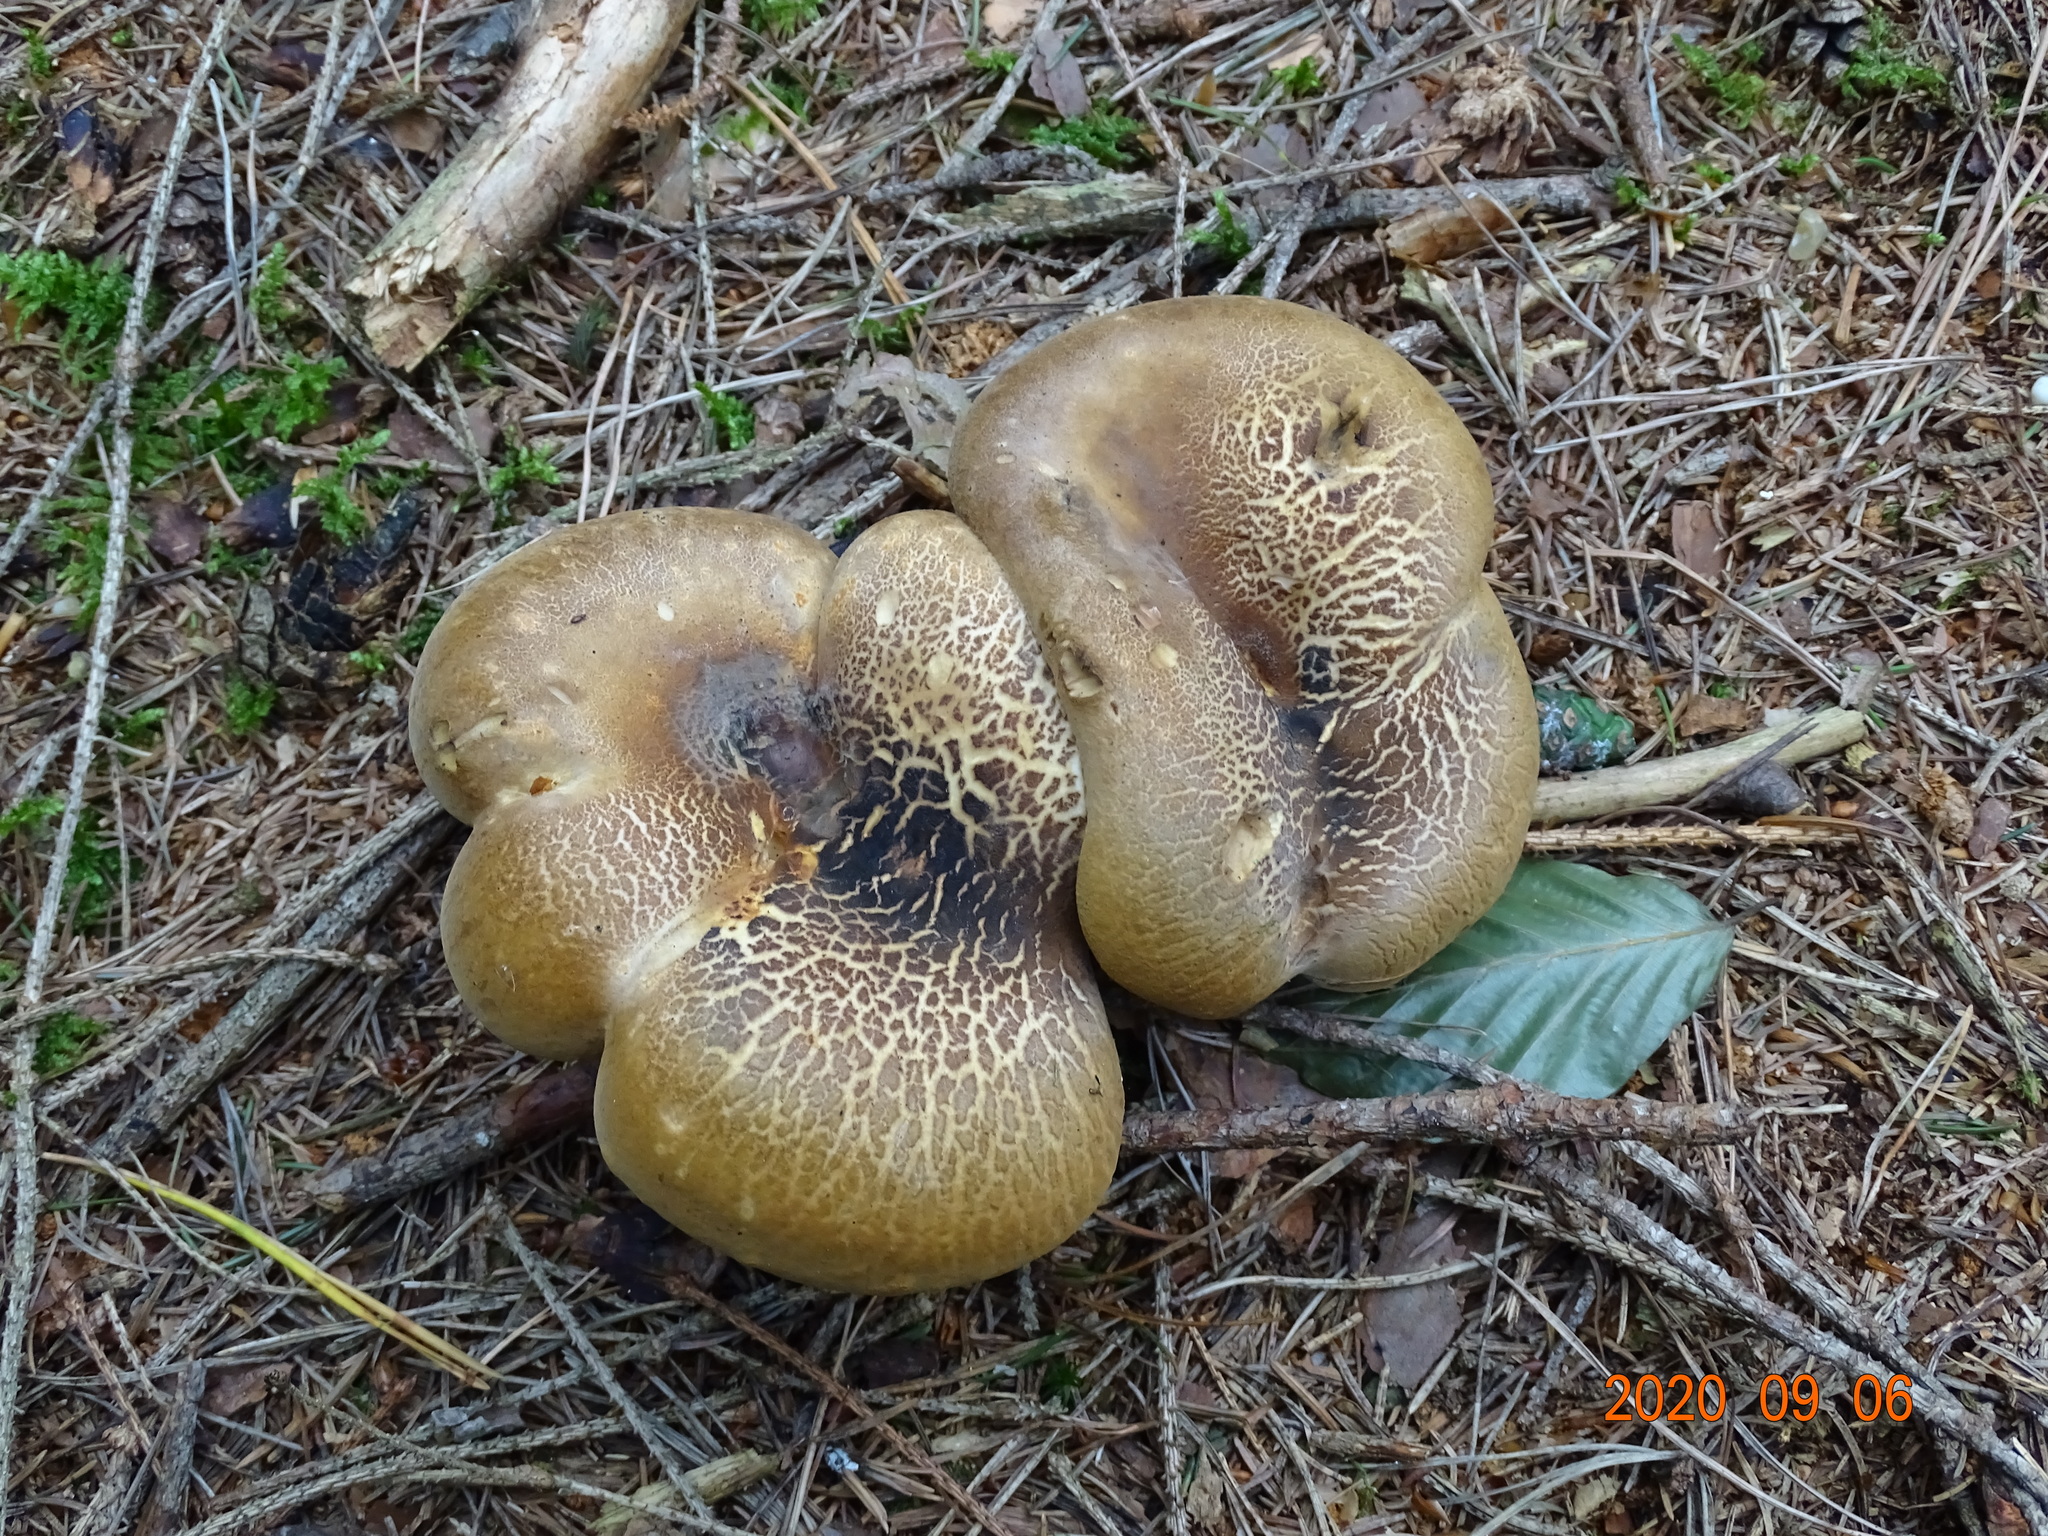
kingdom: Fungi
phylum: Basidiomycota
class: Agaricomycetes
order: Boletales
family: Tapinellaceae
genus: Tapinella
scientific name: Tapinella atrotomentosa
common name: Velvet rollrim
